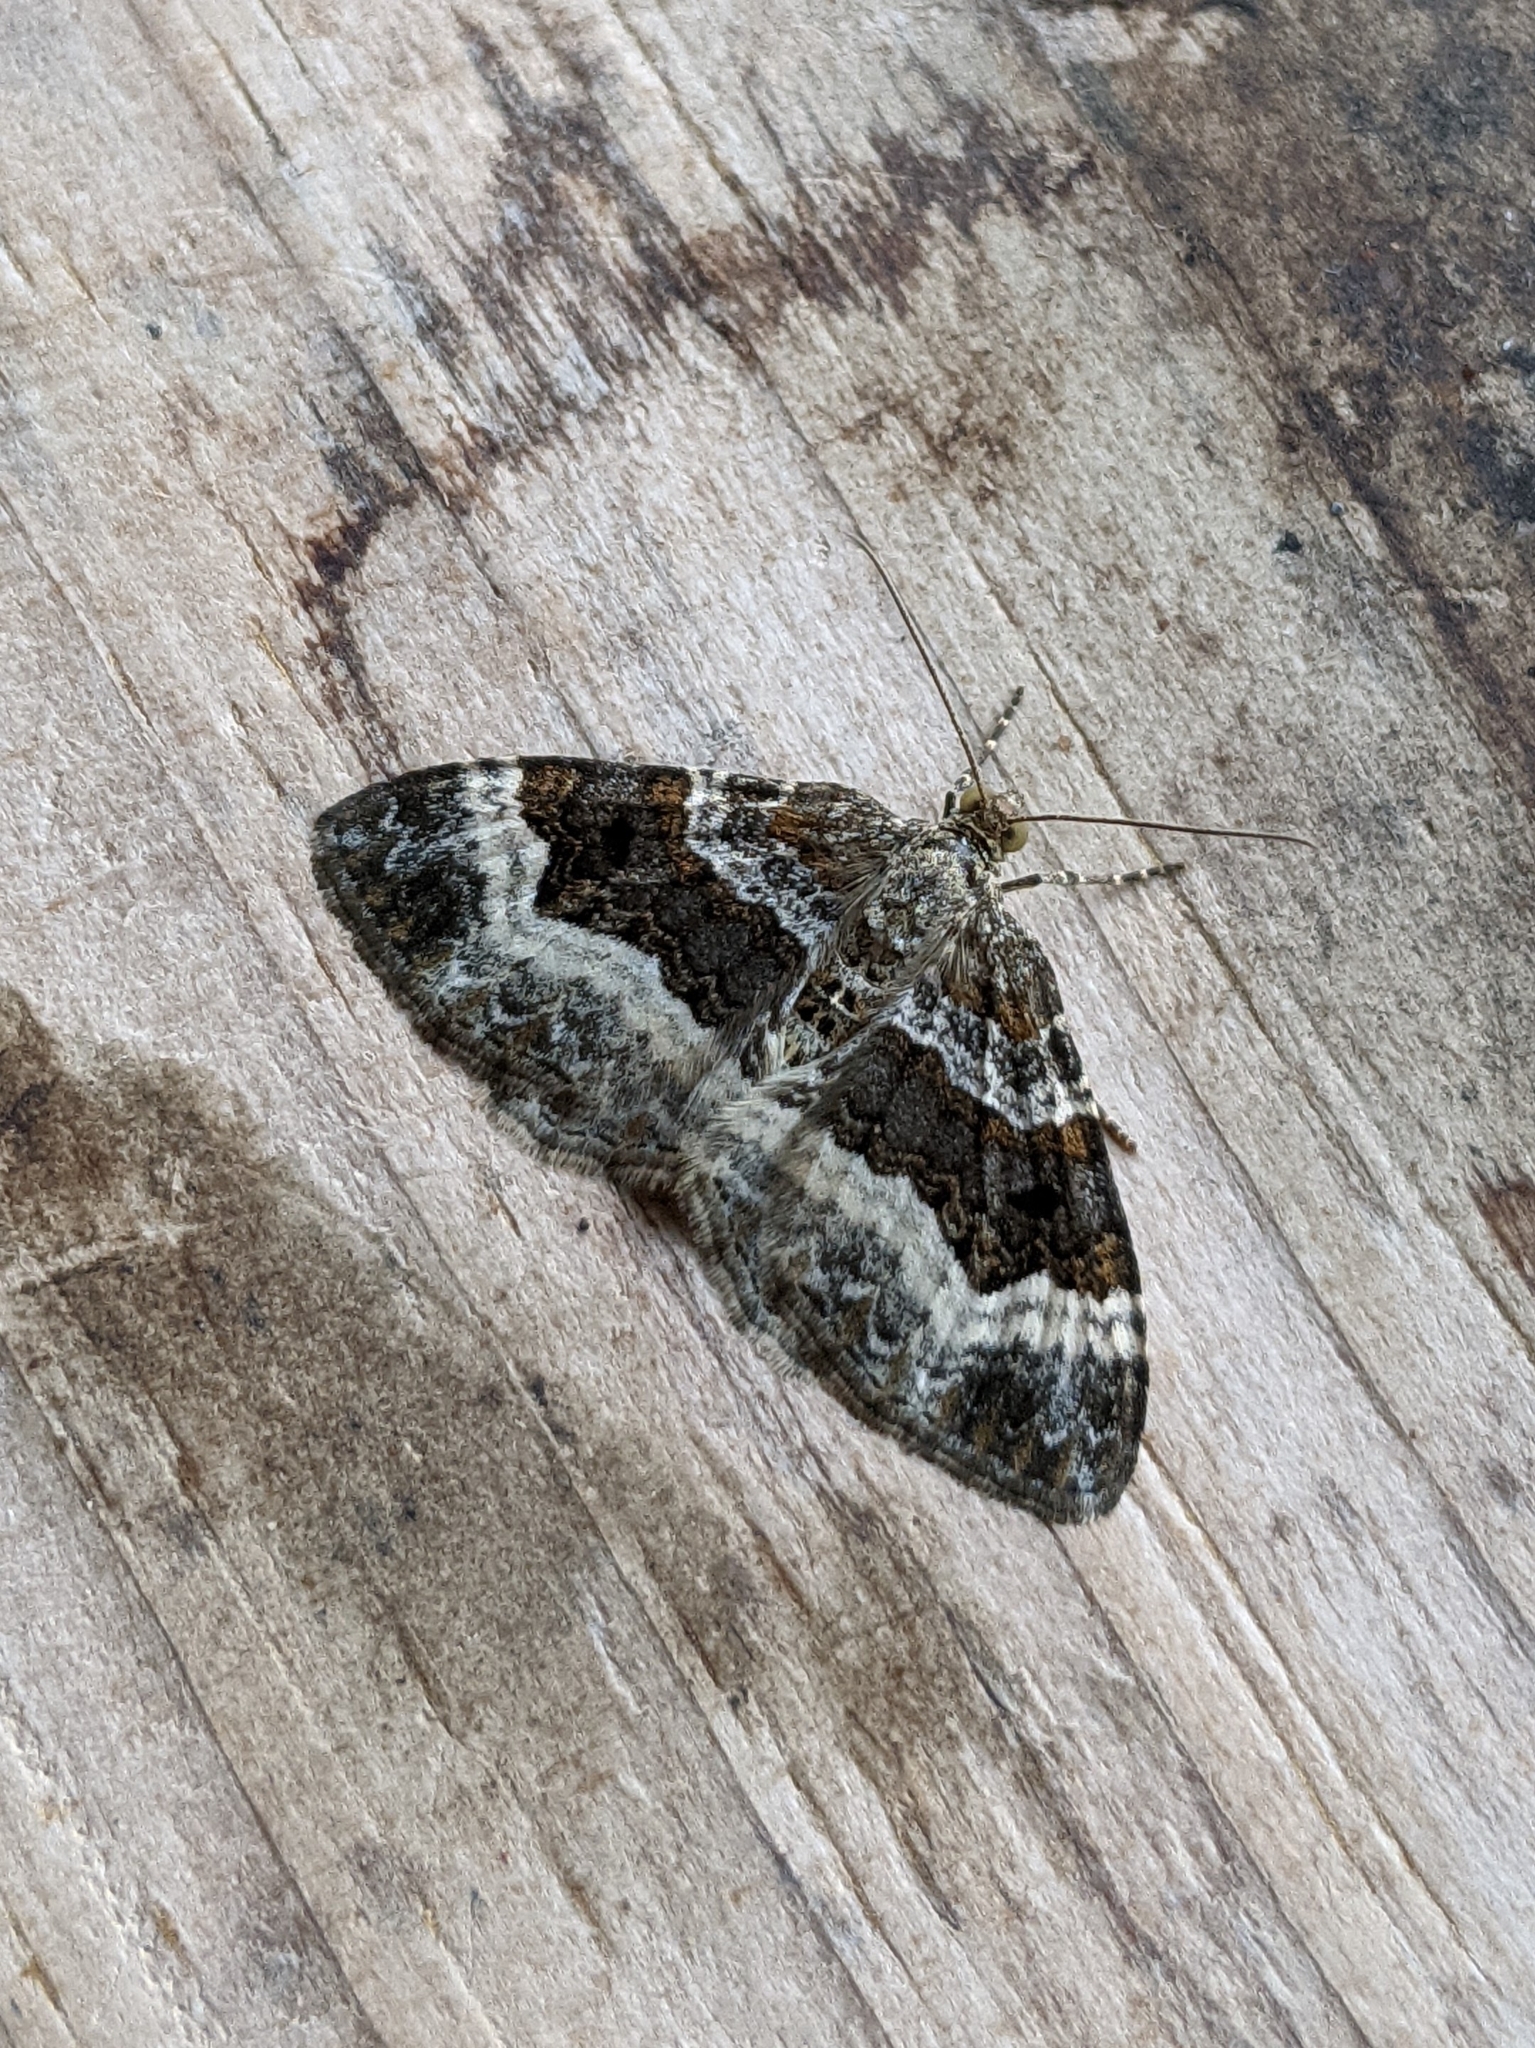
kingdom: Animalia
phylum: Arthropoda
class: Insecta
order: Lepidoptera
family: Geometridae
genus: Epirrhoe
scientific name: Epirrhoe alternata
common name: Common carpet
